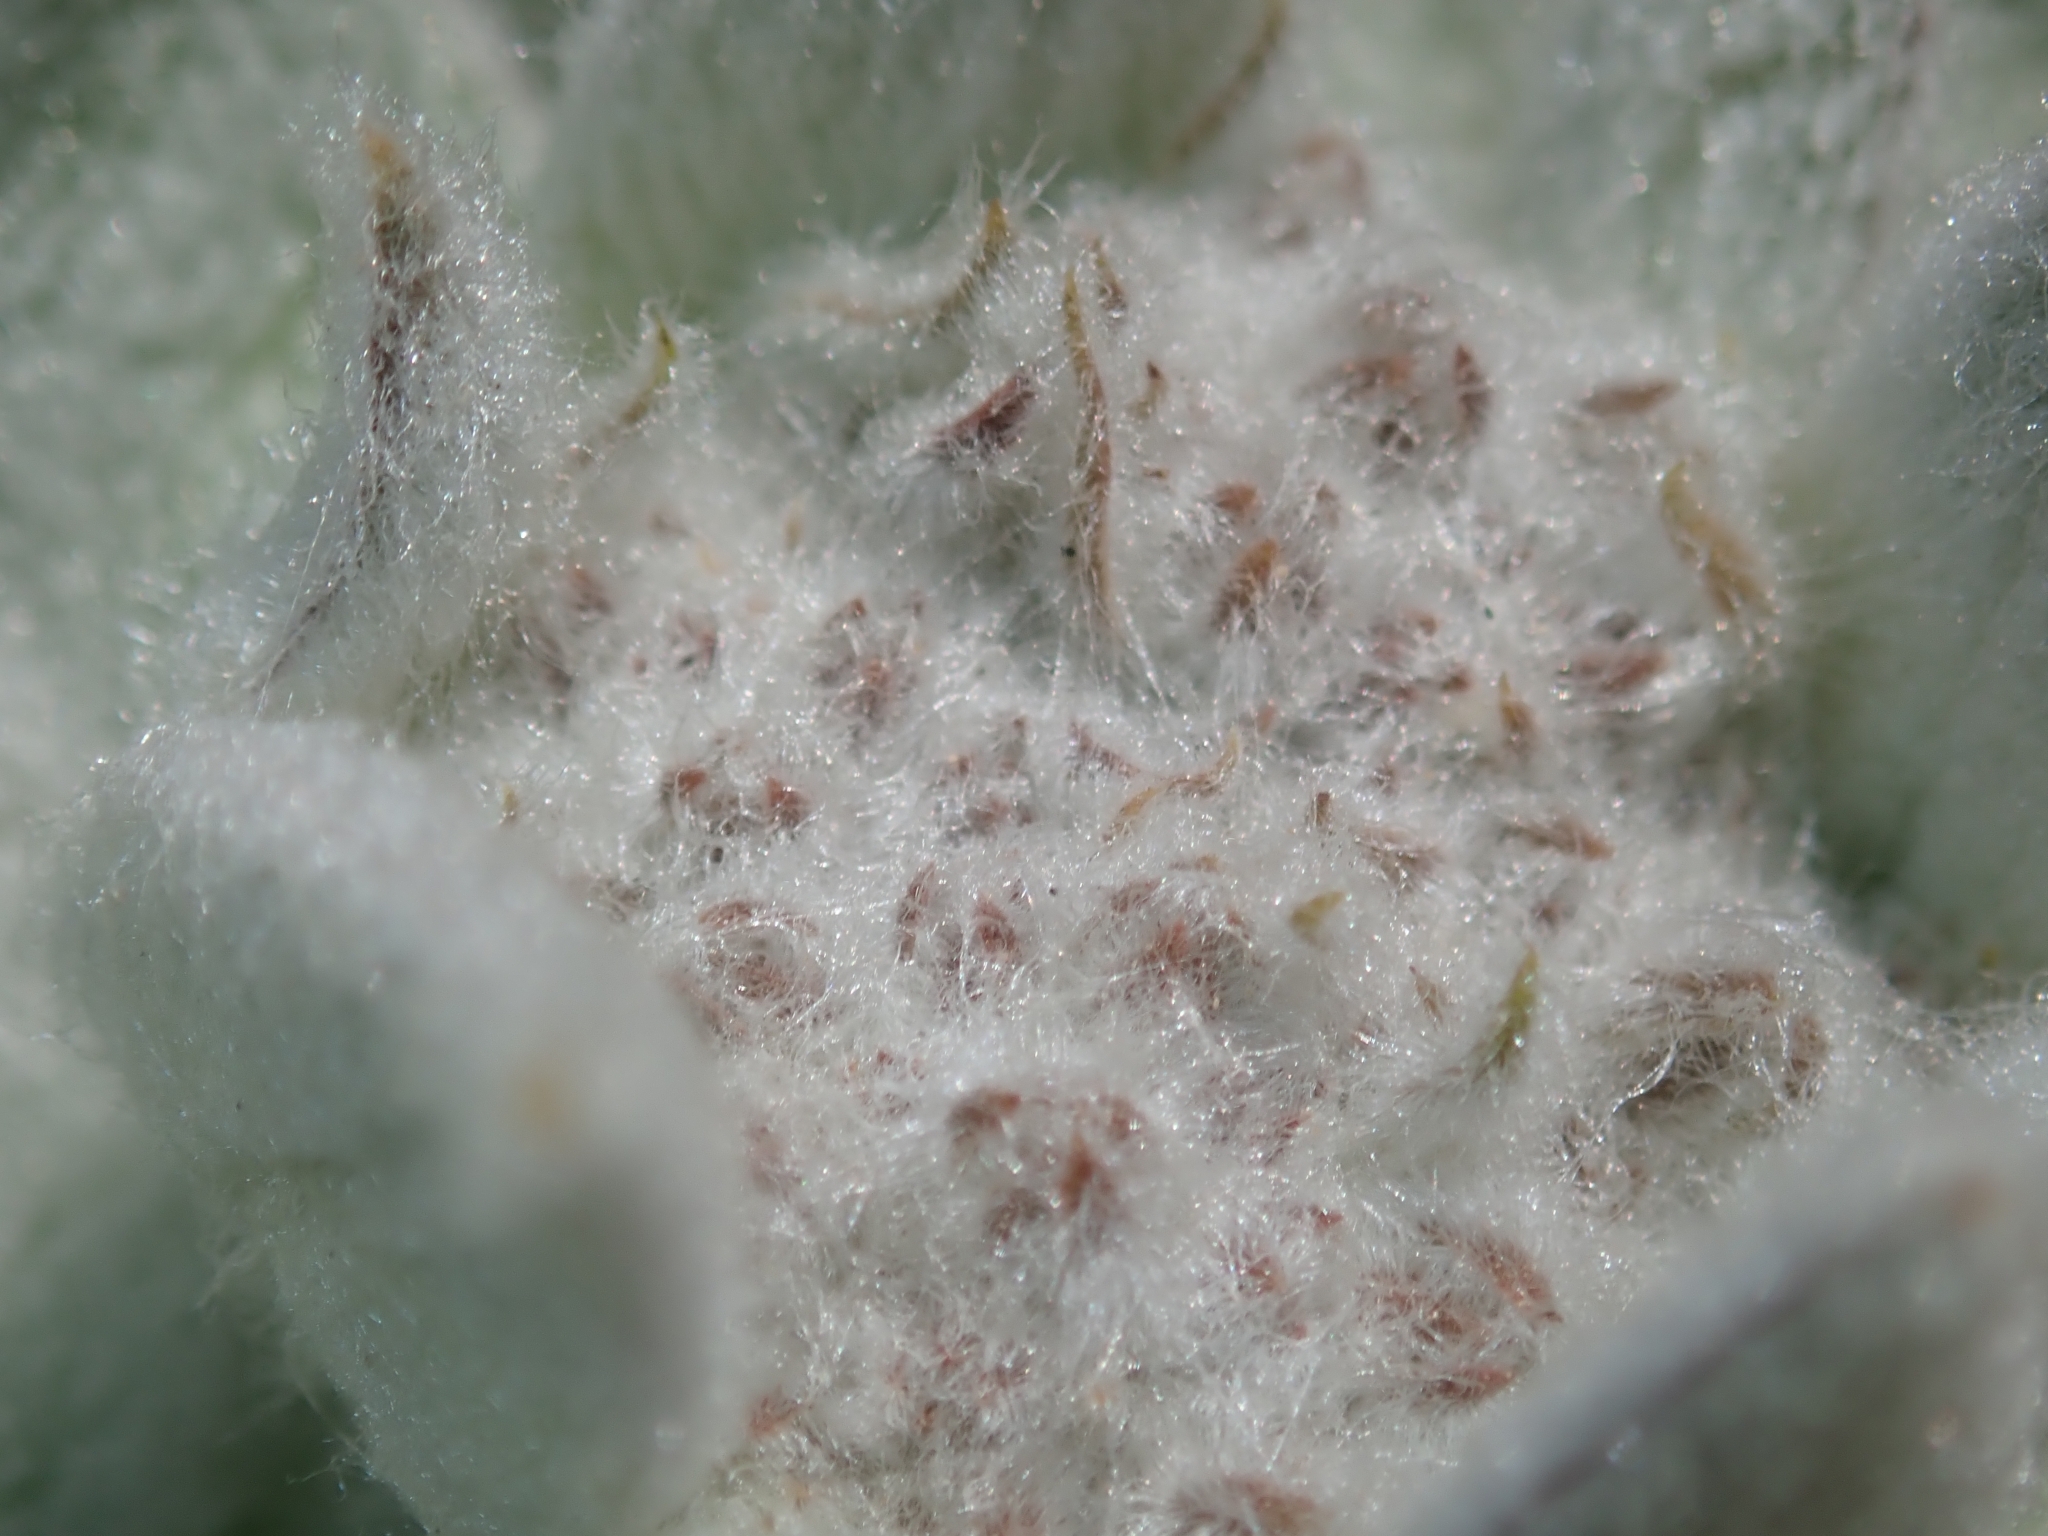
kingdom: Plantae
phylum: Tracheophyta
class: Magnoliopsida
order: Gentianales
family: Apocynaceae
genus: Asclepias
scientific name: Asclepias eriocarpa
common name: Indian milkweed
